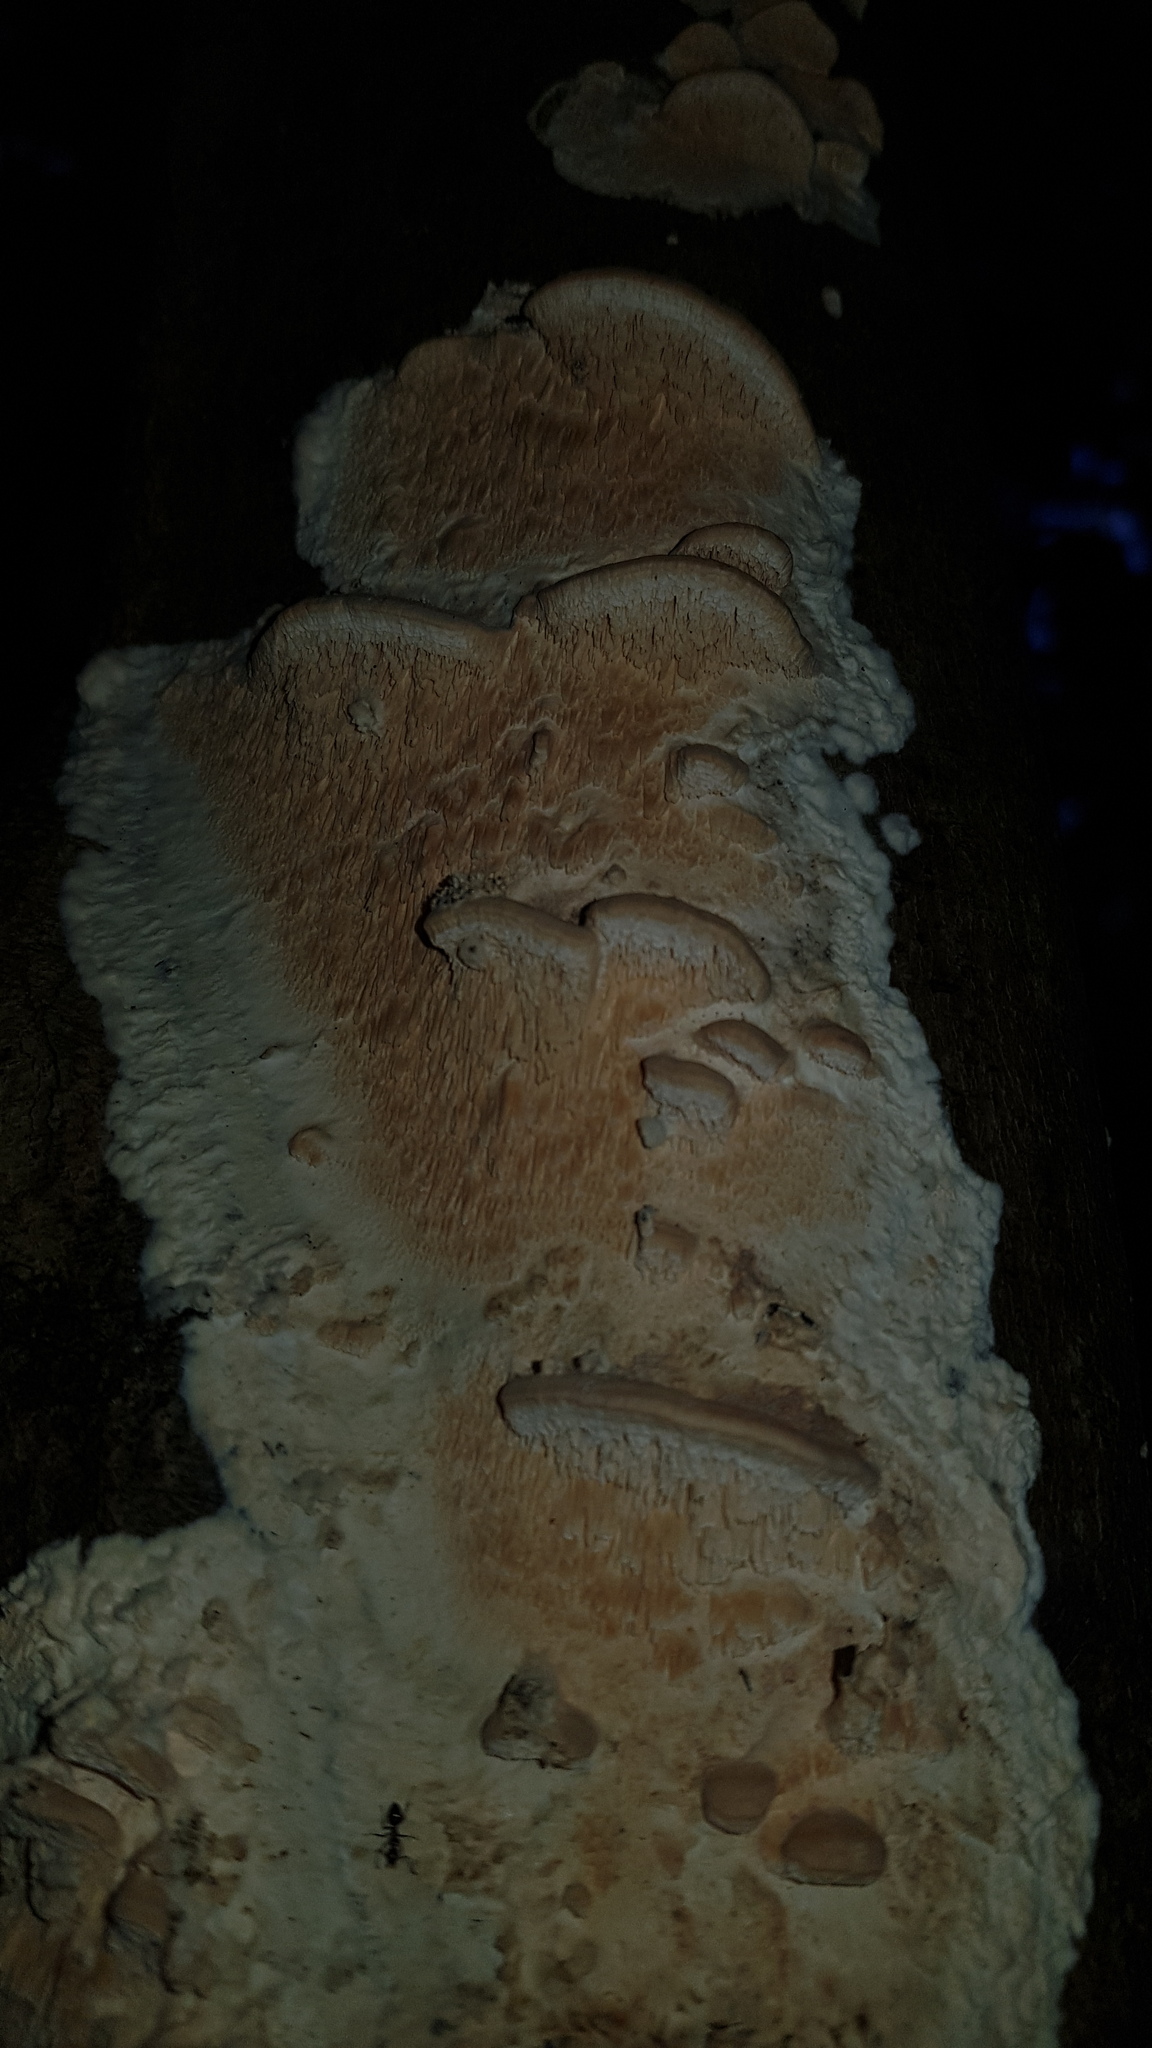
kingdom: Fungi
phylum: Basidiomycota
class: Agaricomycetes
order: Polyporales
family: Cerrenaceae
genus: Cerrena
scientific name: Cerrena zonata
